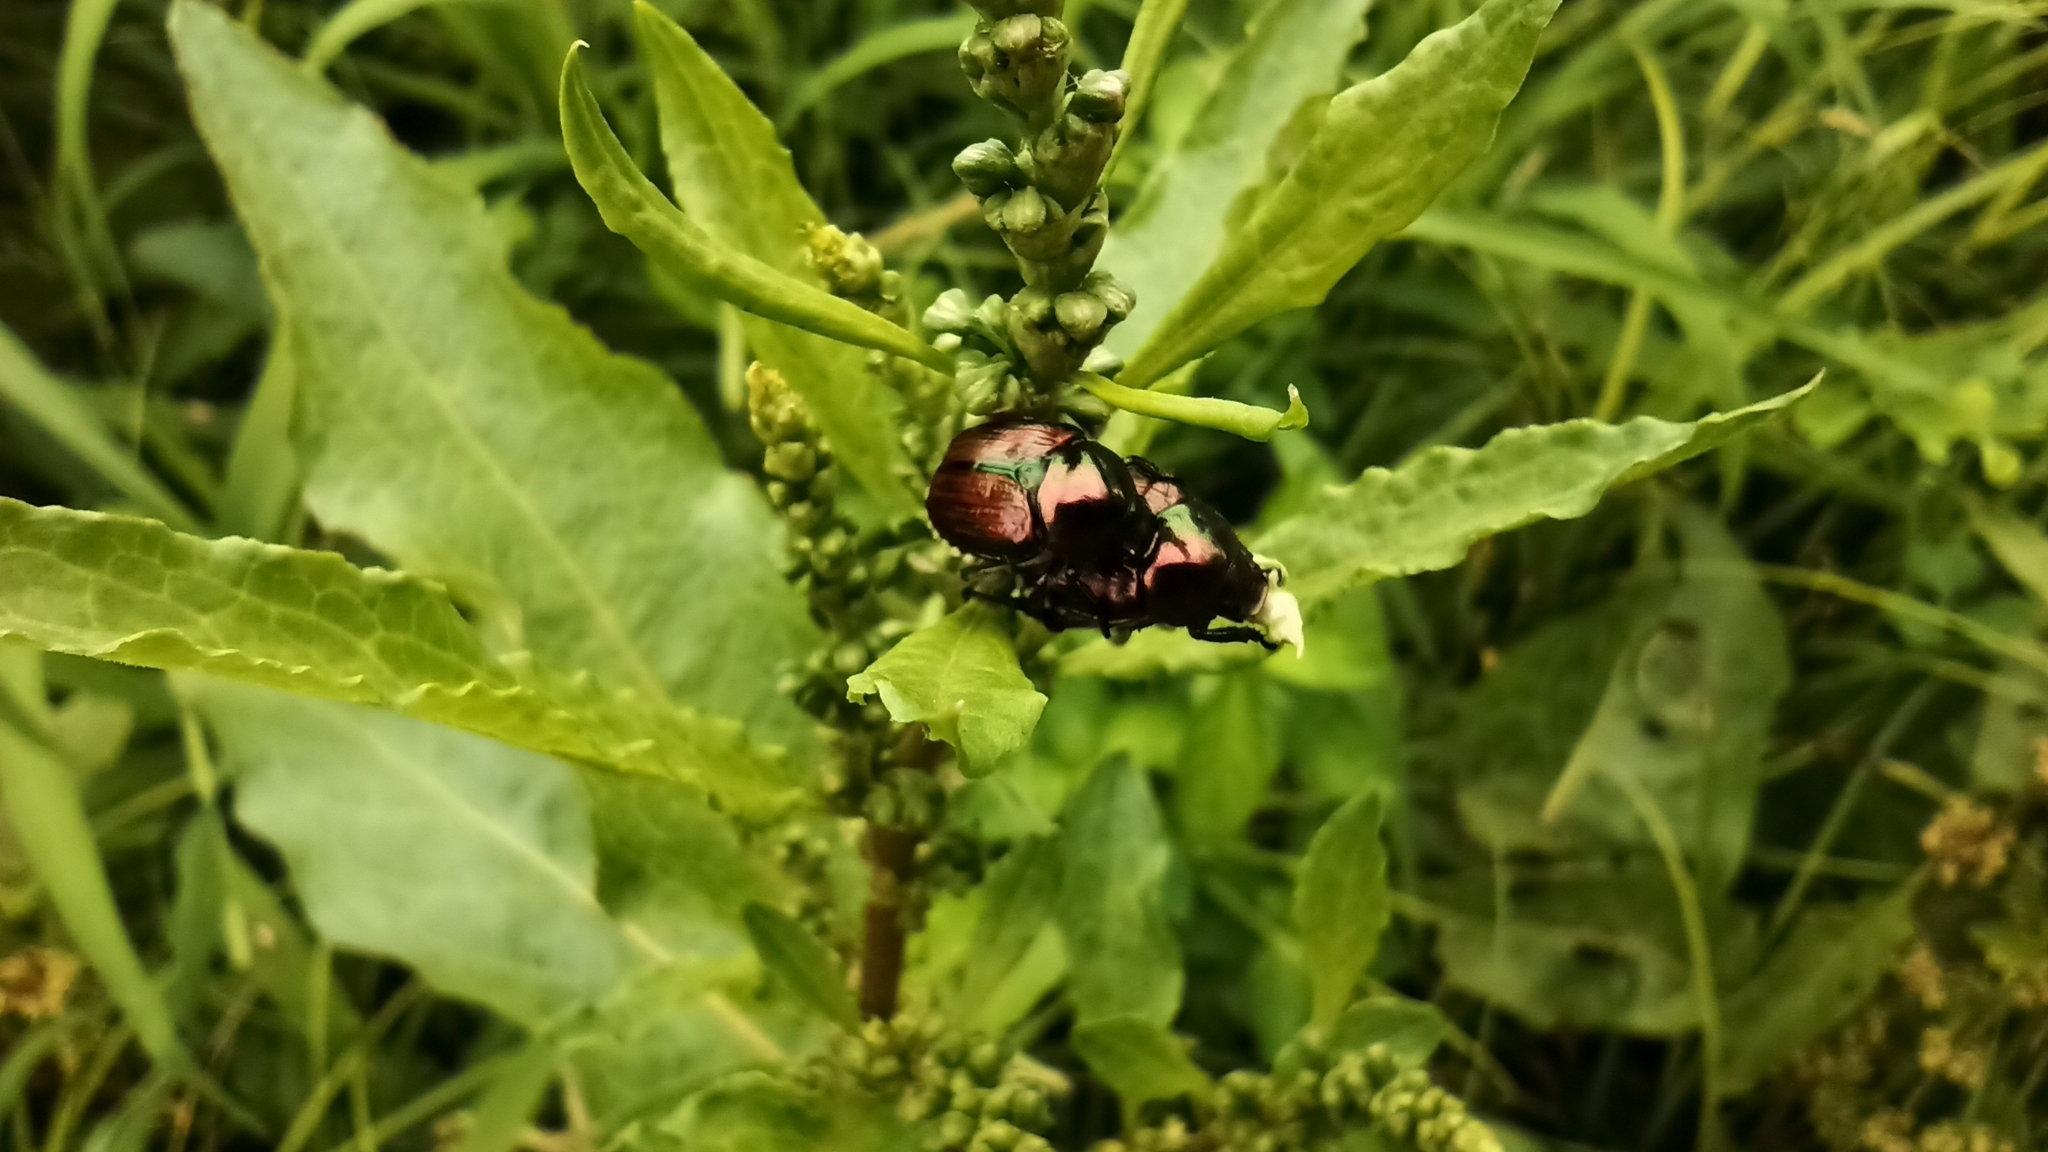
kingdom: Animalia
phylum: Arthropoda
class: Insecta
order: Coleoptera
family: Scarabaeidae
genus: Popillia
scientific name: Popillia japonica
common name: Japanese beetle
